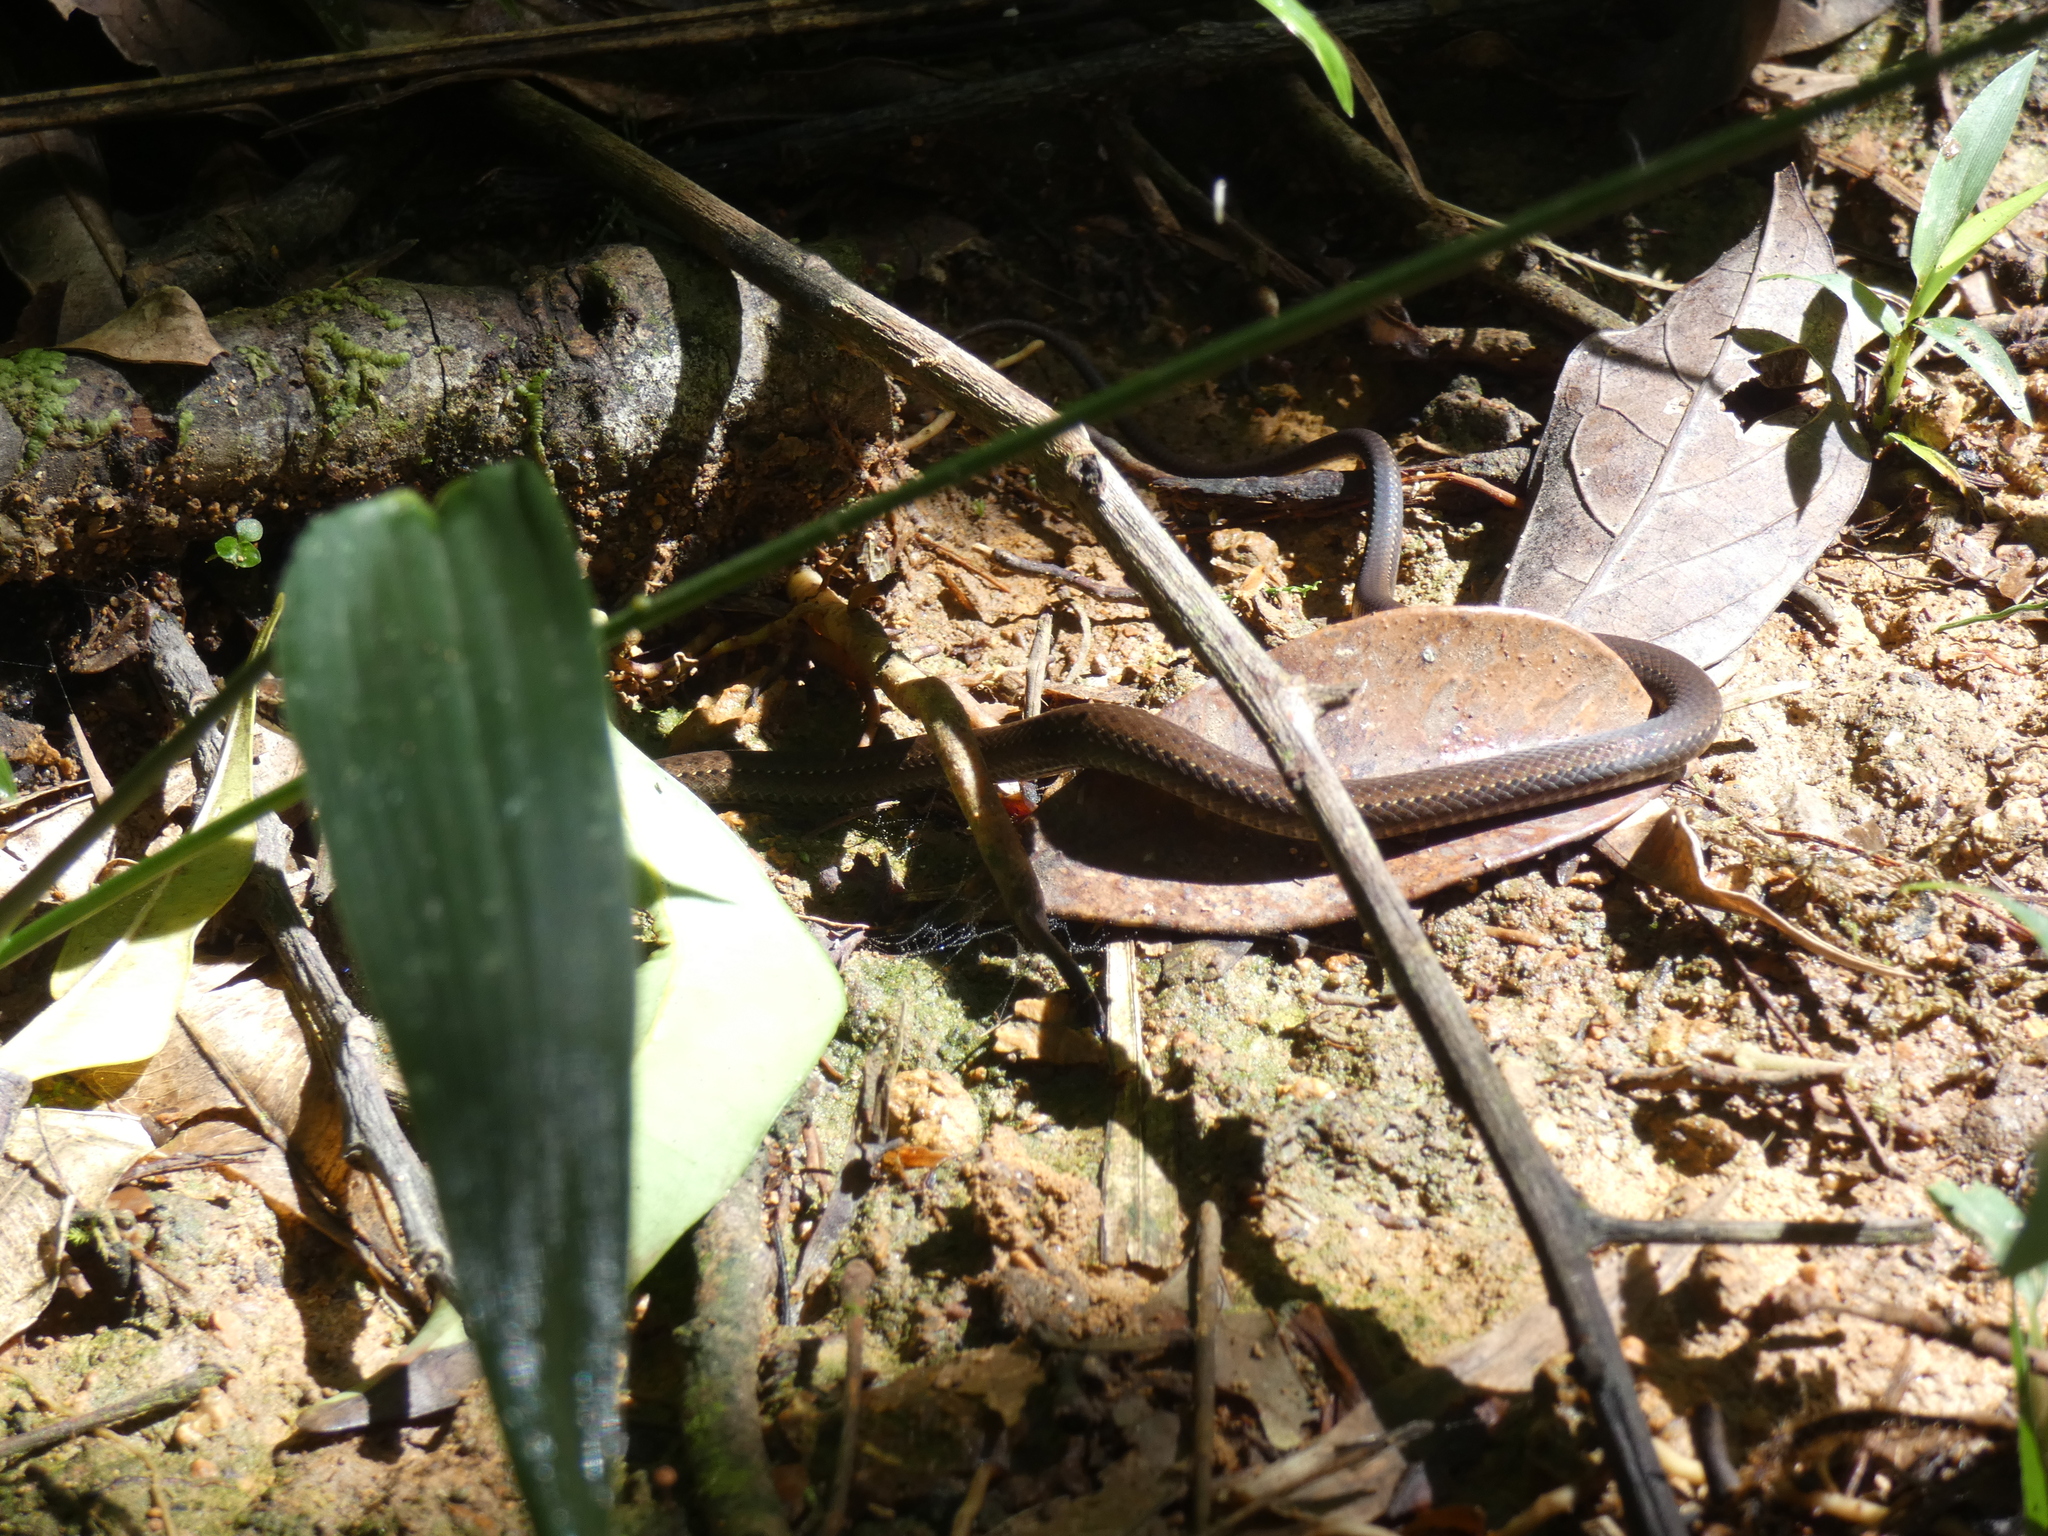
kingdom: Animalia
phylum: Chordata
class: Squamata
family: Colubridae
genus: Echinanthera
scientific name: Echinanthera cephalostriata
